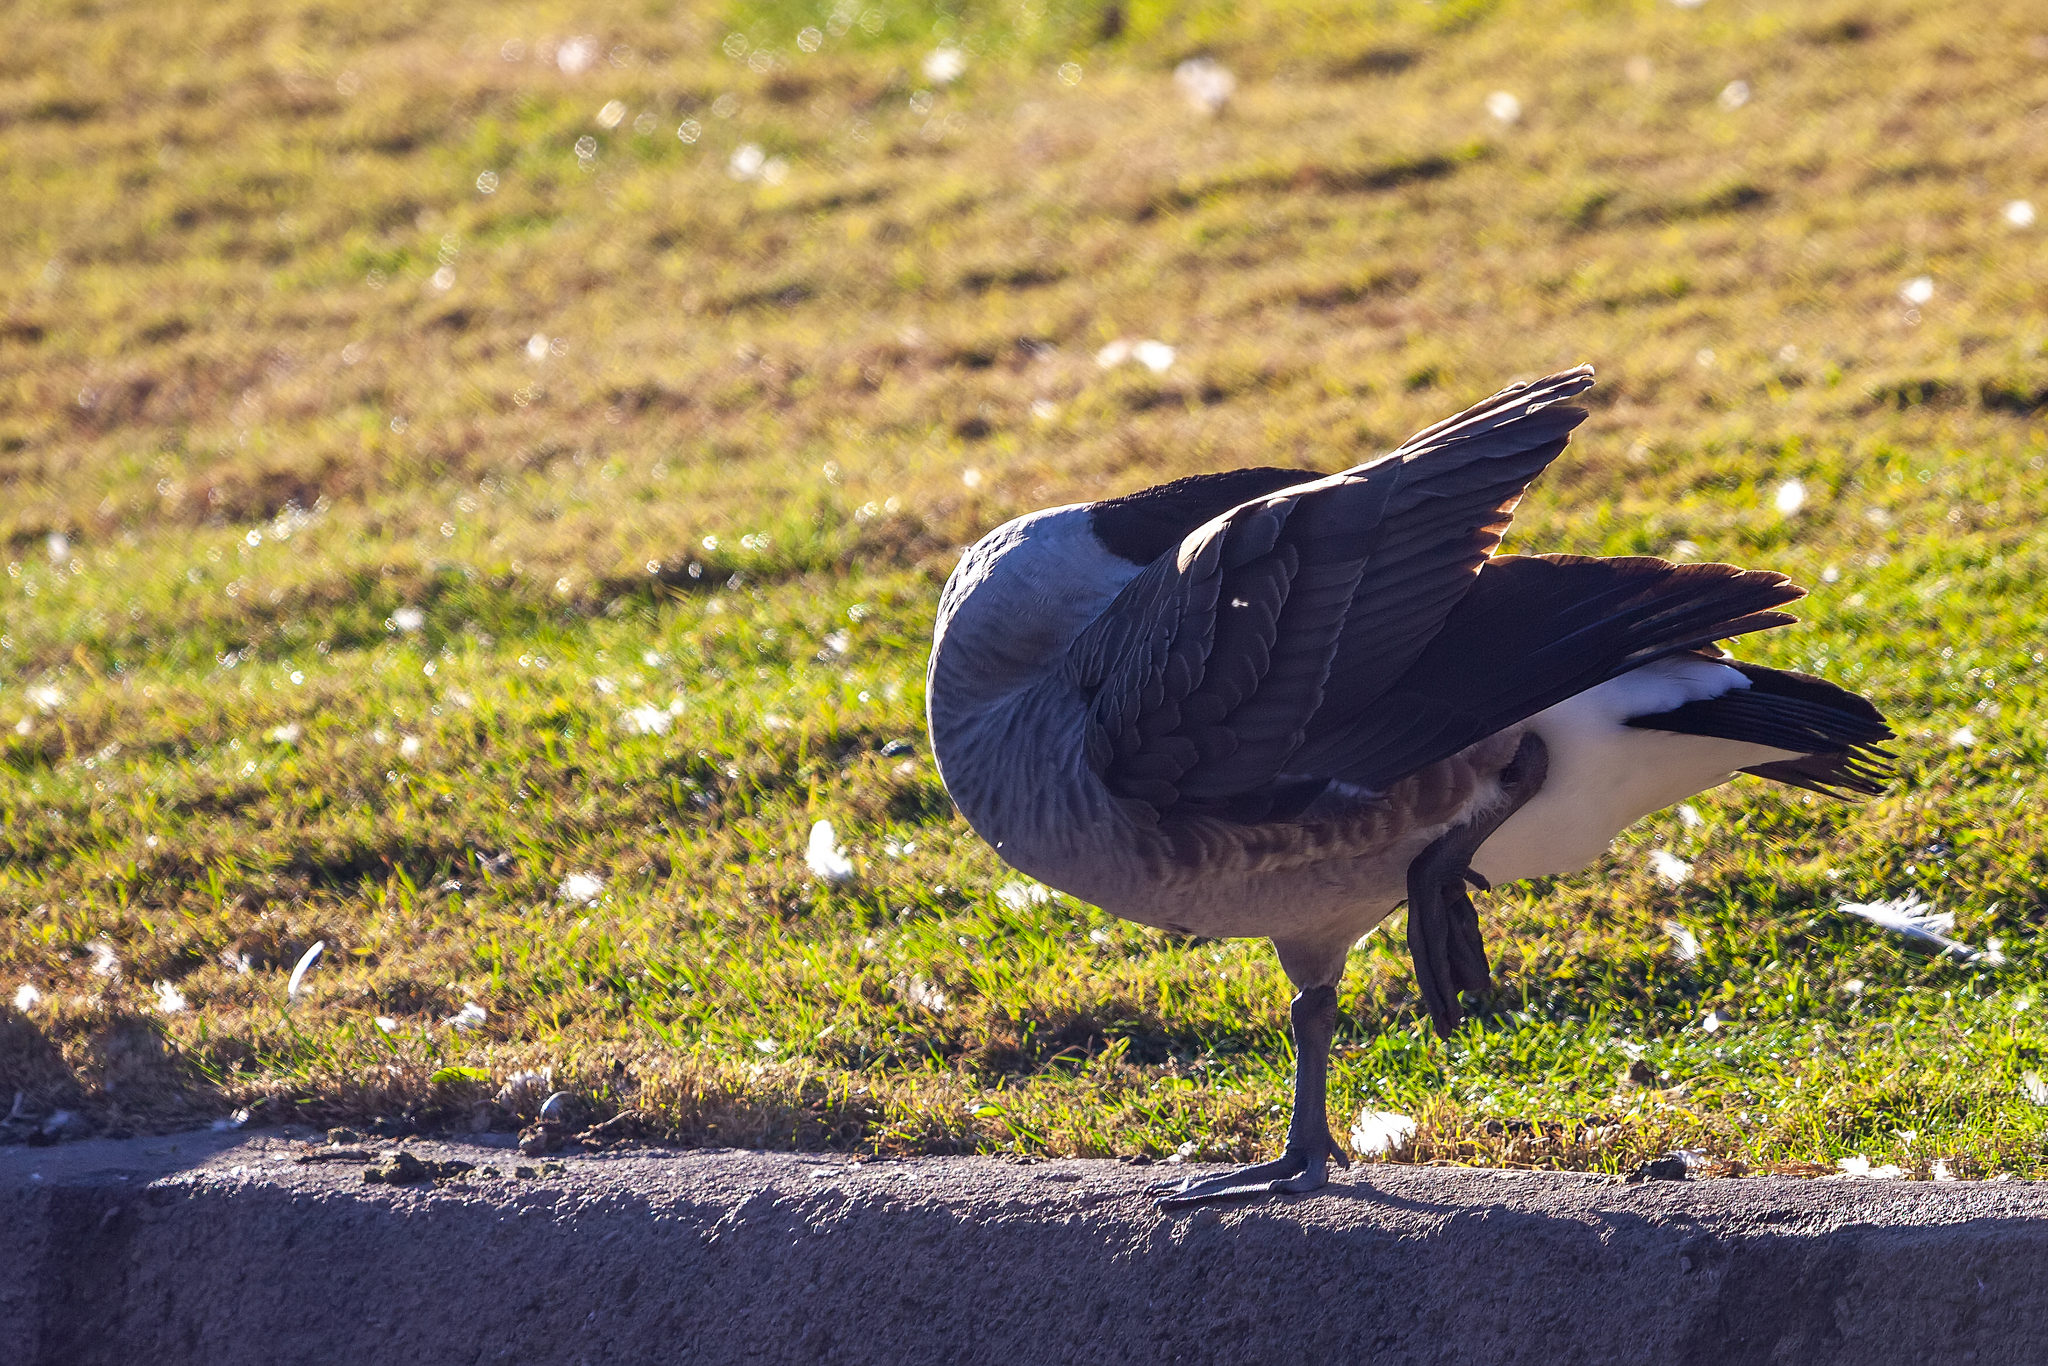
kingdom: Animalia
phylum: Chordata
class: Aves
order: Anseriformes
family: Anatidae
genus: Branta
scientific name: Branta canadensis
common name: Canada goose
